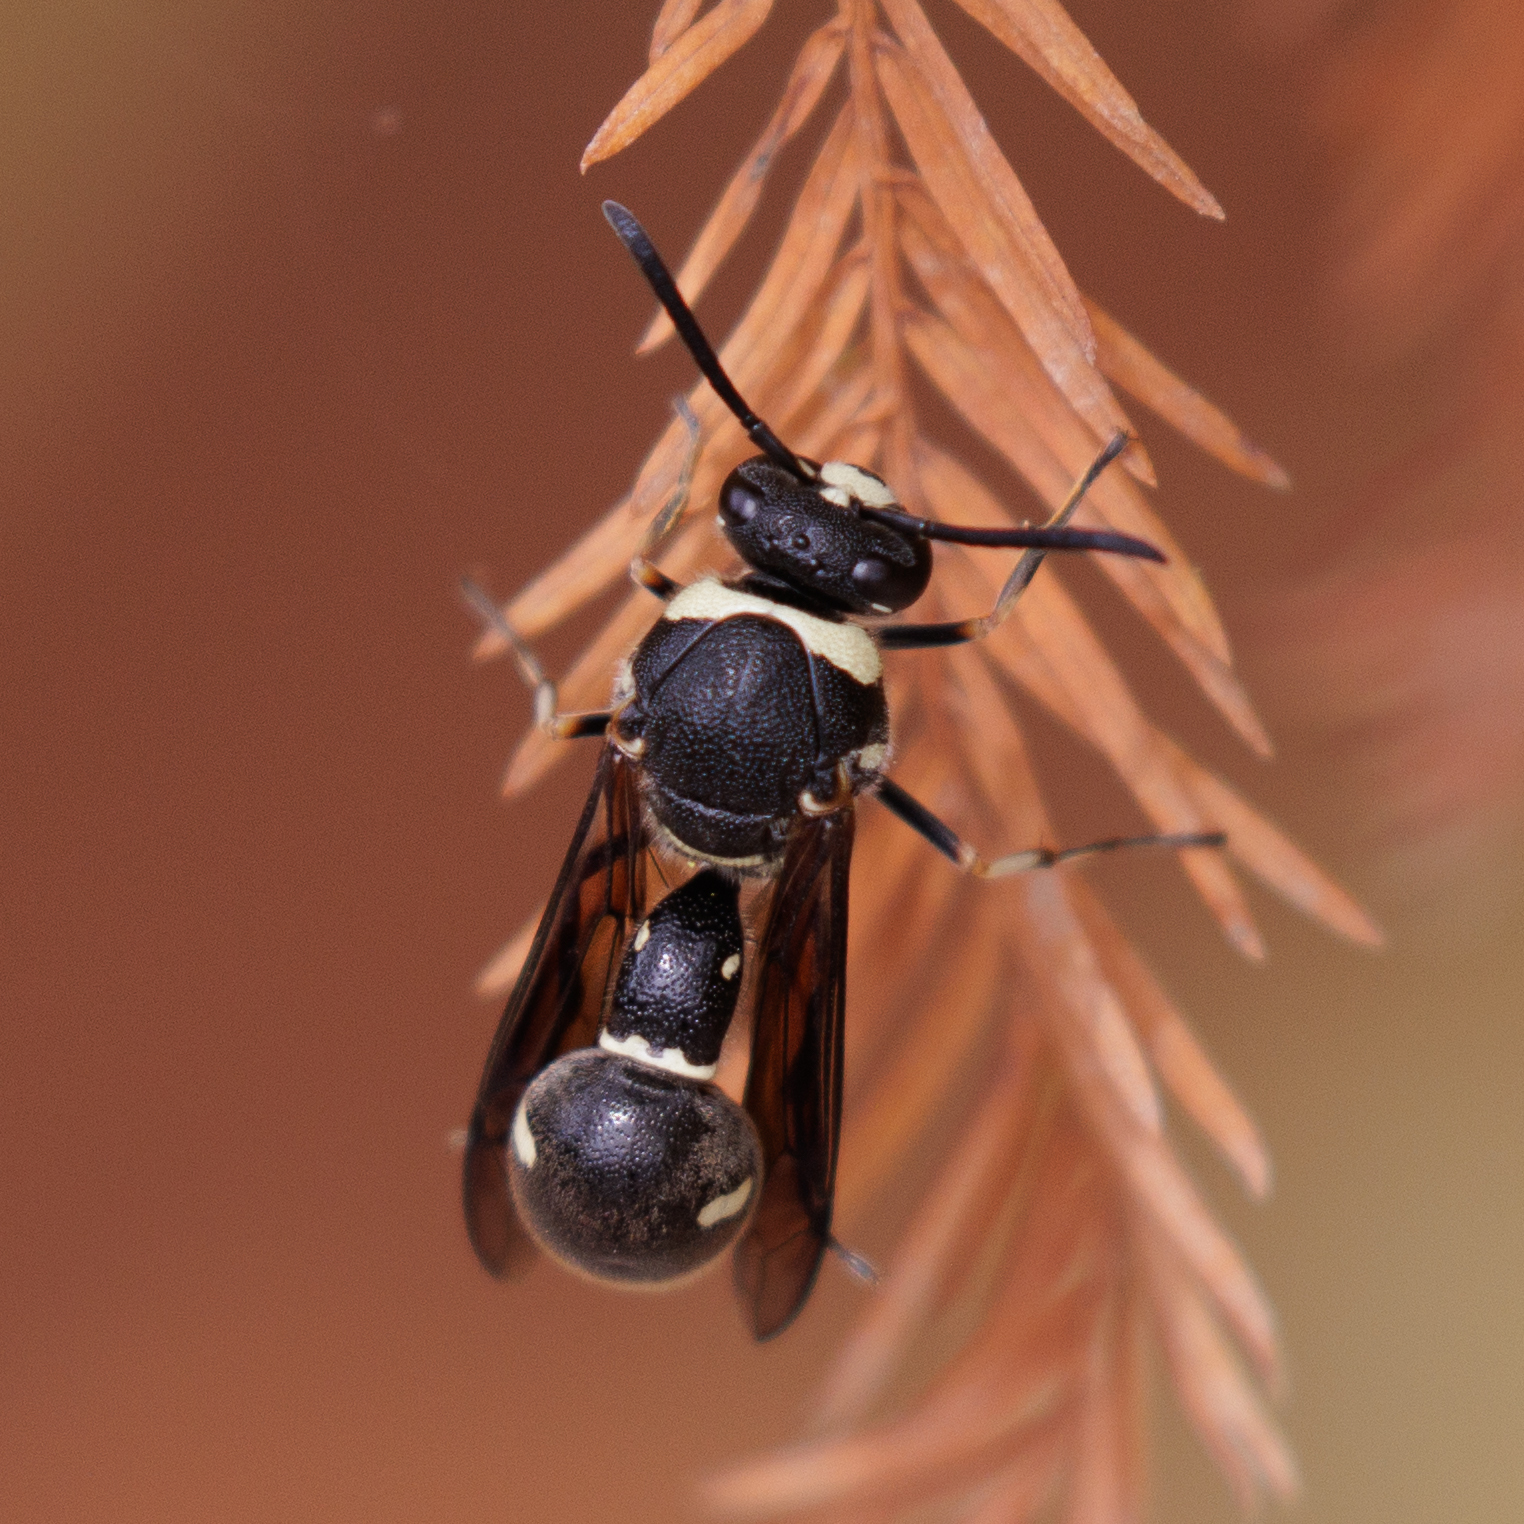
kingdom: Animalia
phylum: Arthropoda
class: Insecta
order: Hymenoptera
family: Vespidae
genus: Eumenes
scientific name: Eumenes fraternus
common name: Fraternal potter wasp
